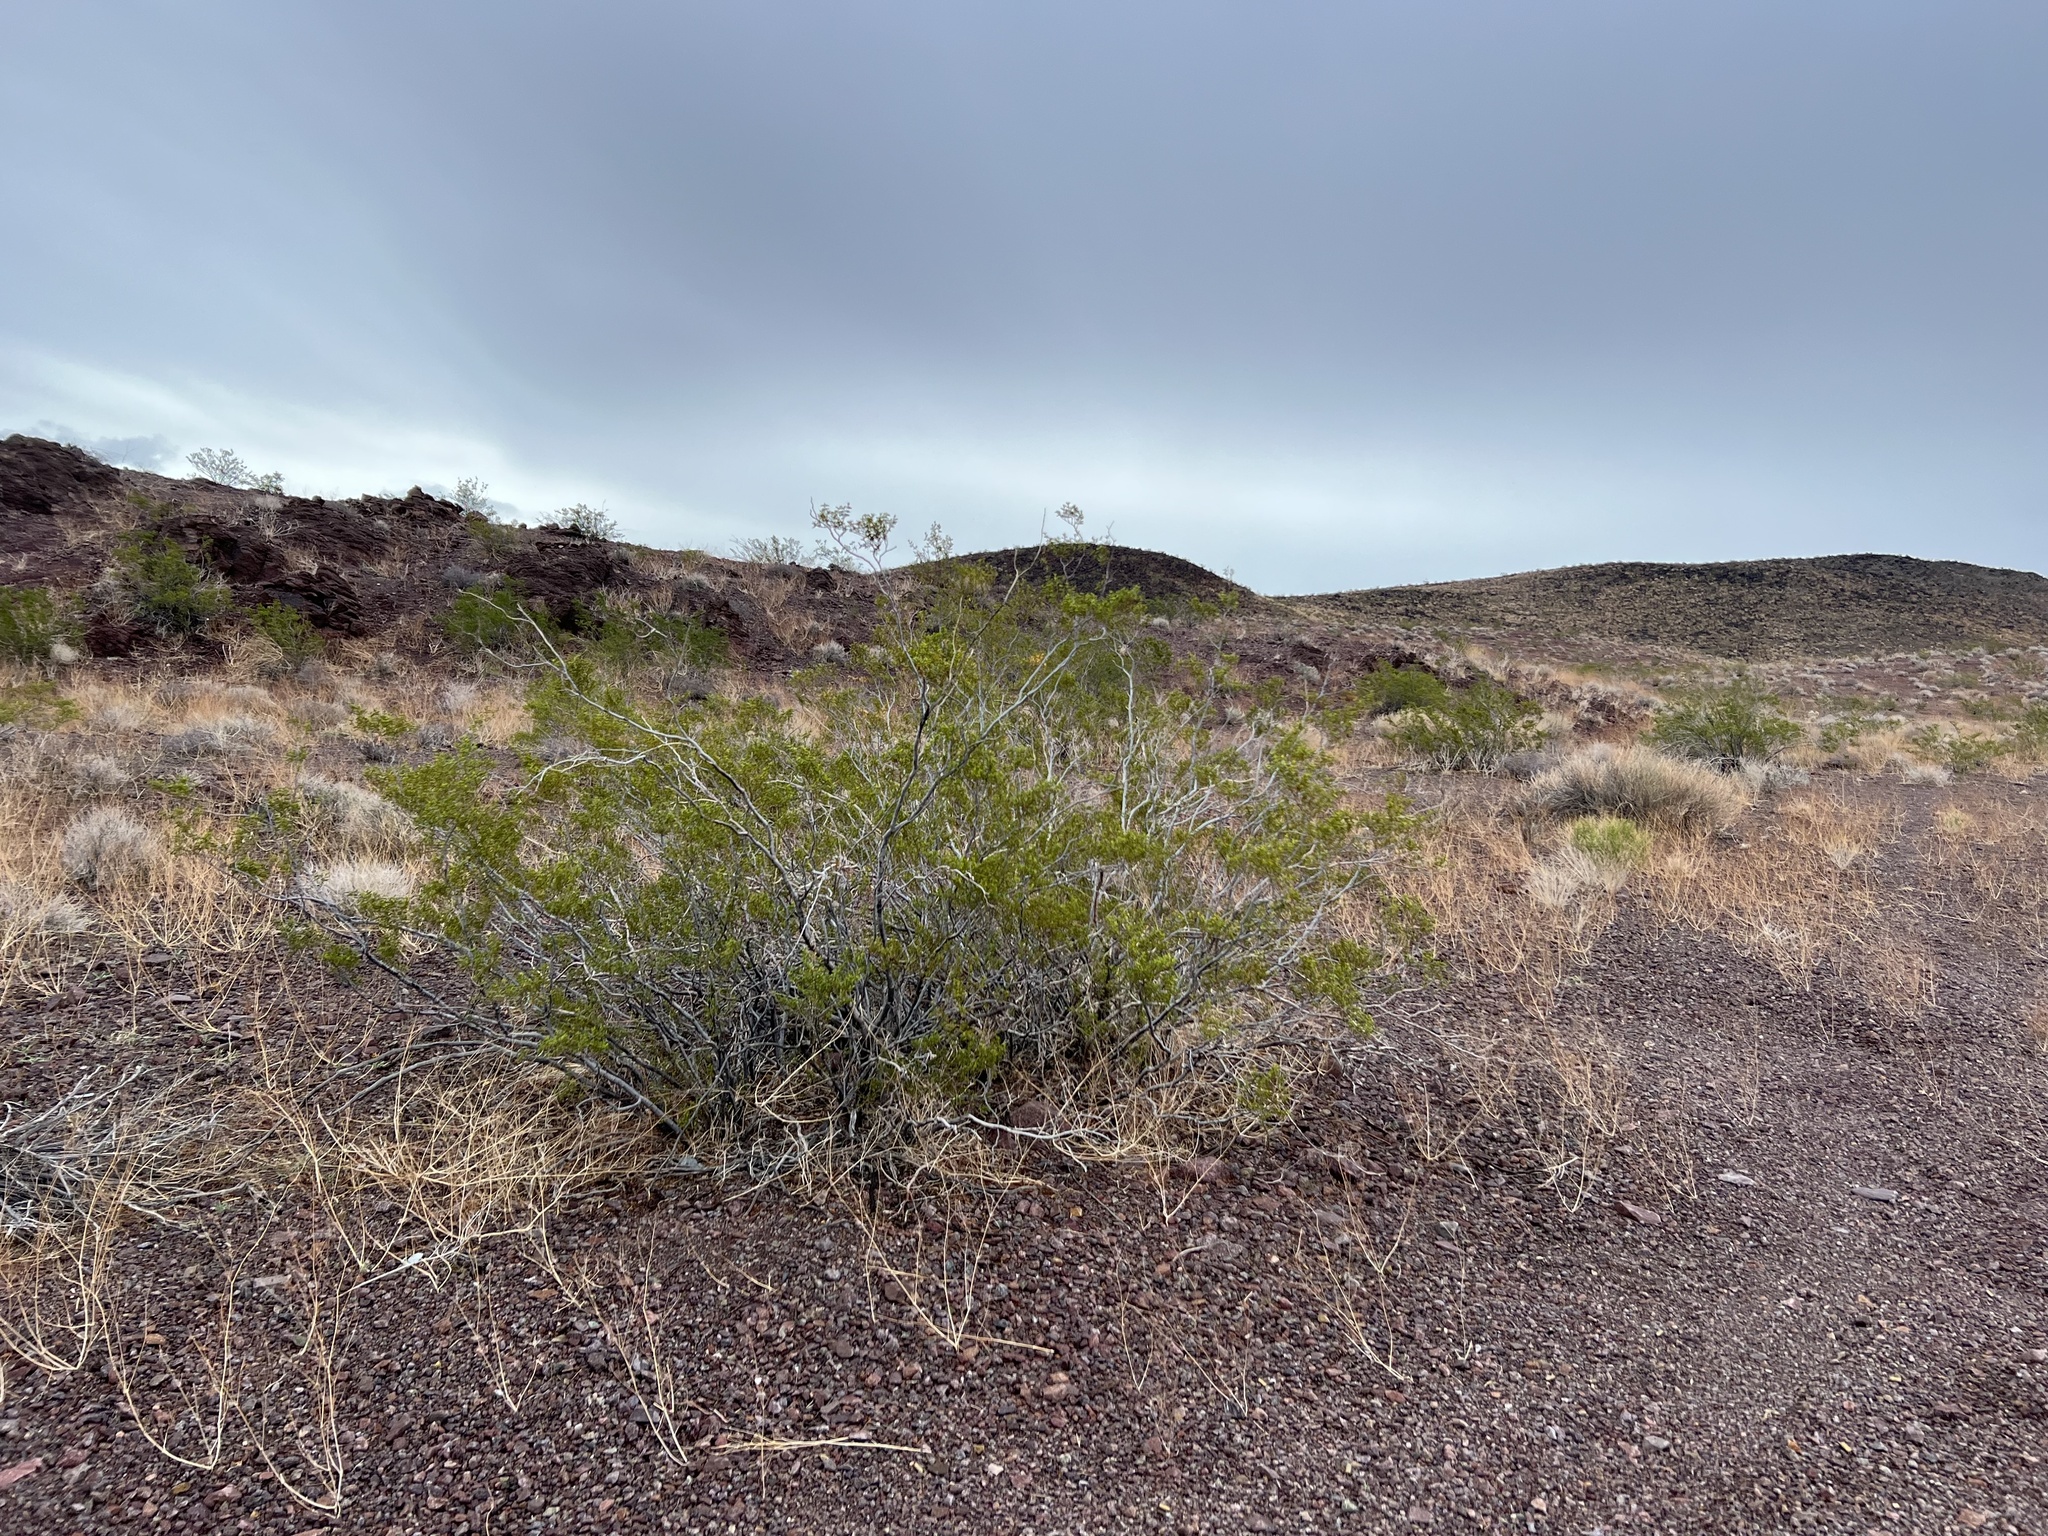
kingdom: Plantae
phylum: Tracheophyta
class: Magnoliopsida
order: Zygophyllales
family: Zygophyllaceae
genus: Larrea
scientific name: Larrea tridentata
